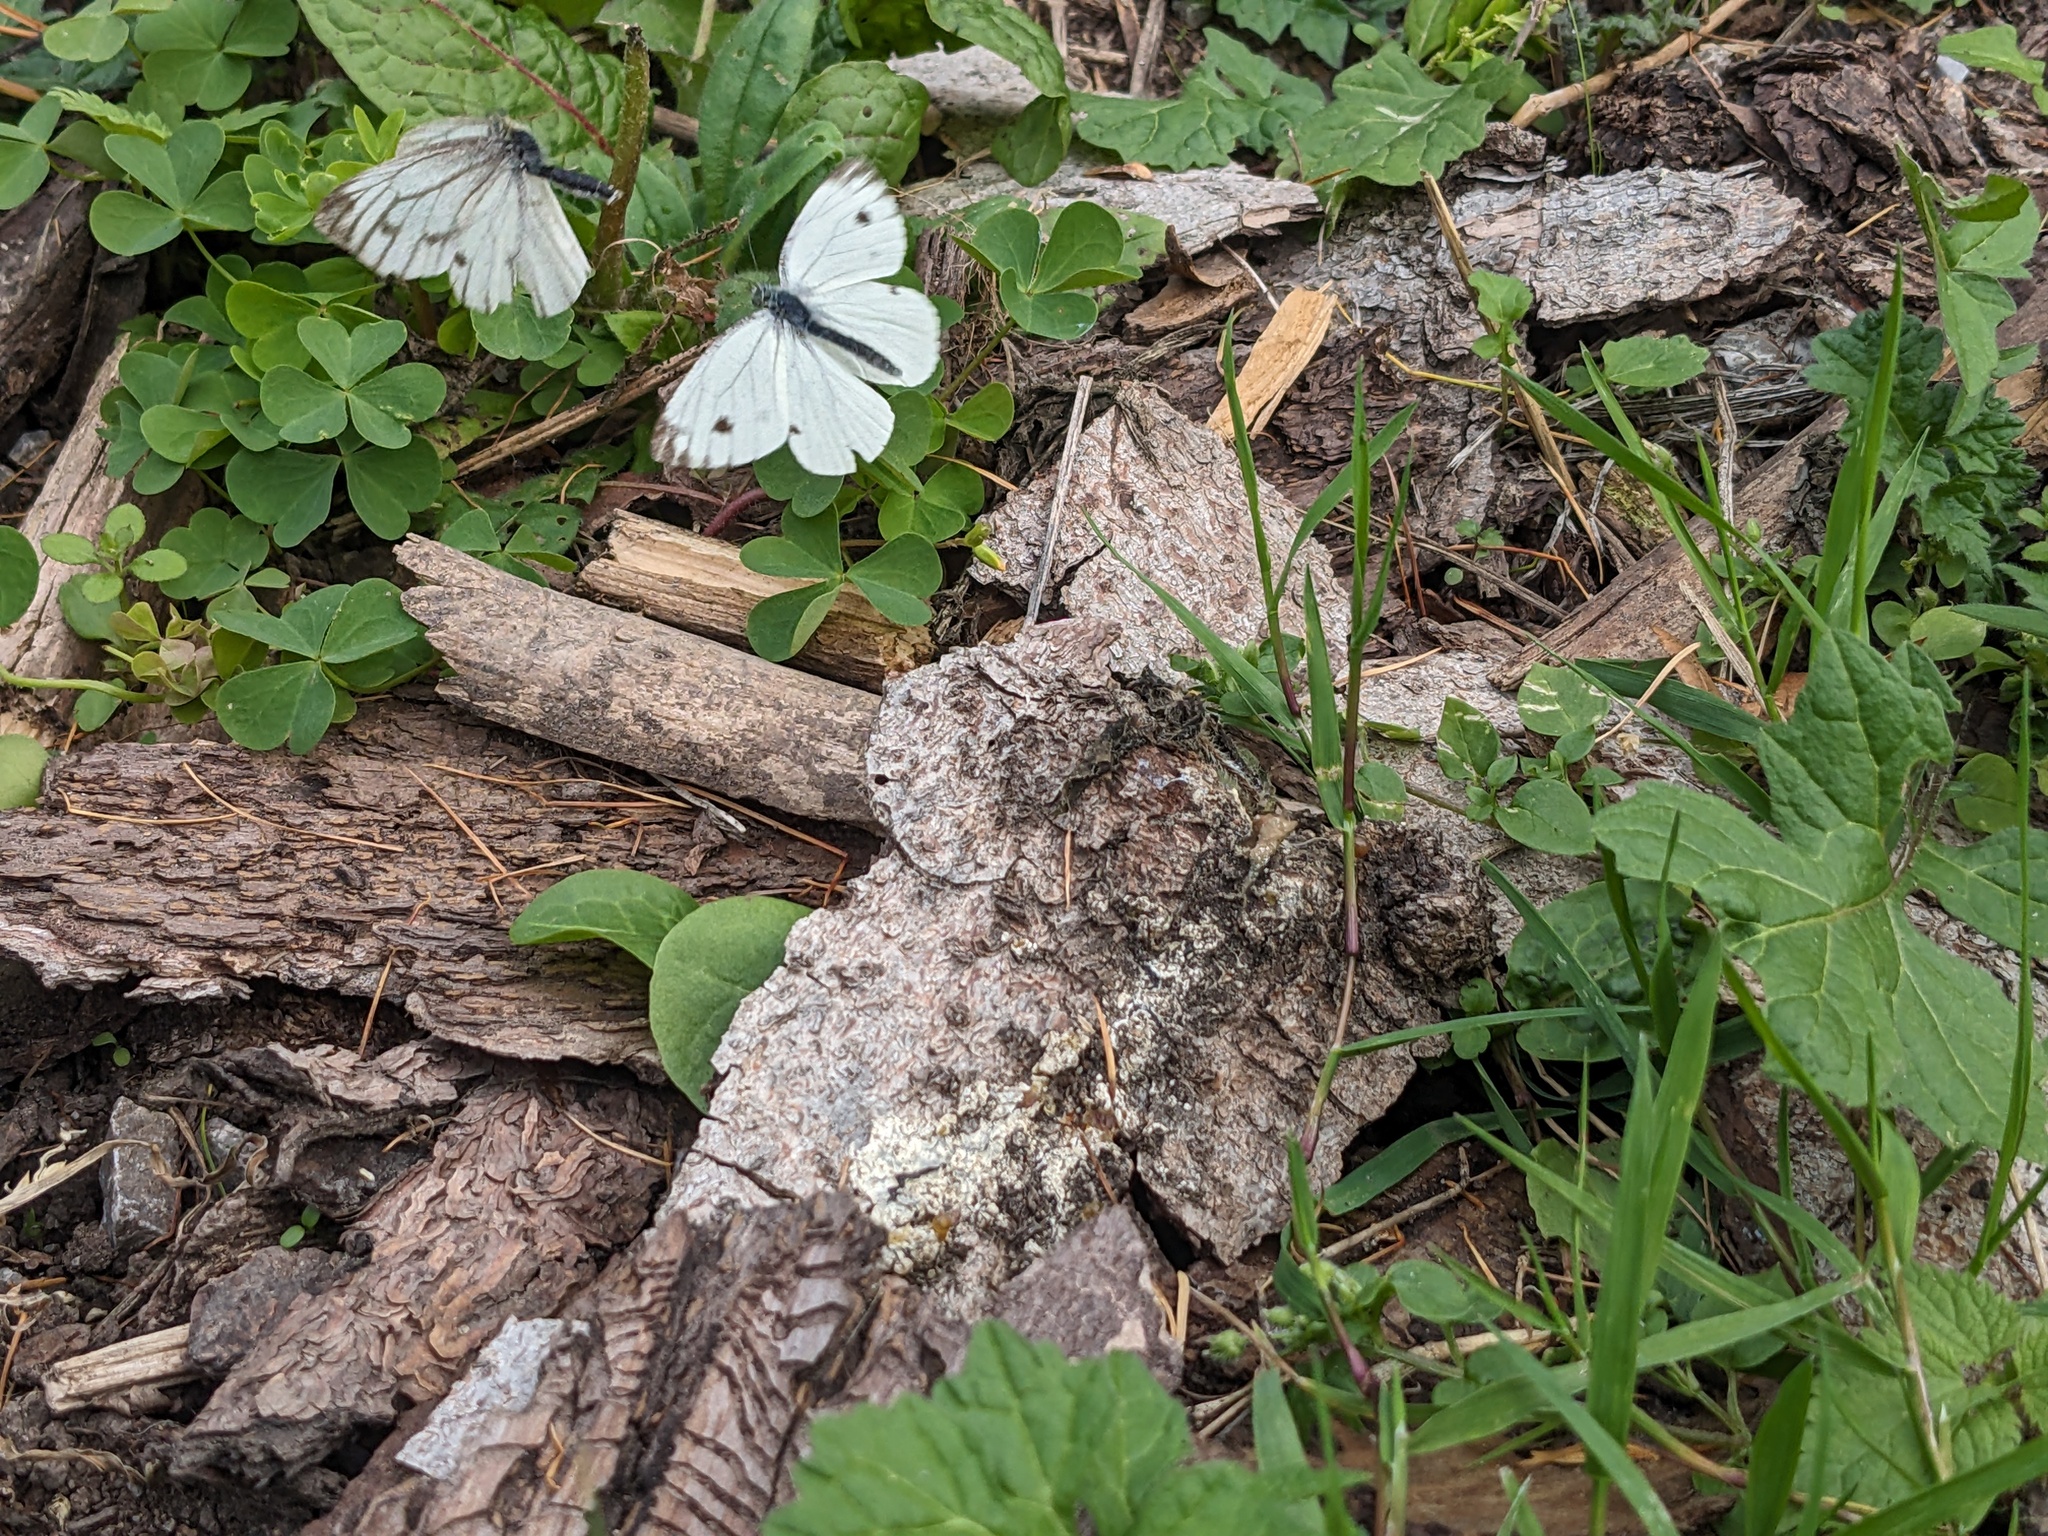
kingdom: Animalia
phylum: Arthropoda
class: Insecta
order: Lepidoptera
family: Pieridae
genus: Pieris
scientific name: Pieris napi
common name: Green-veined white
